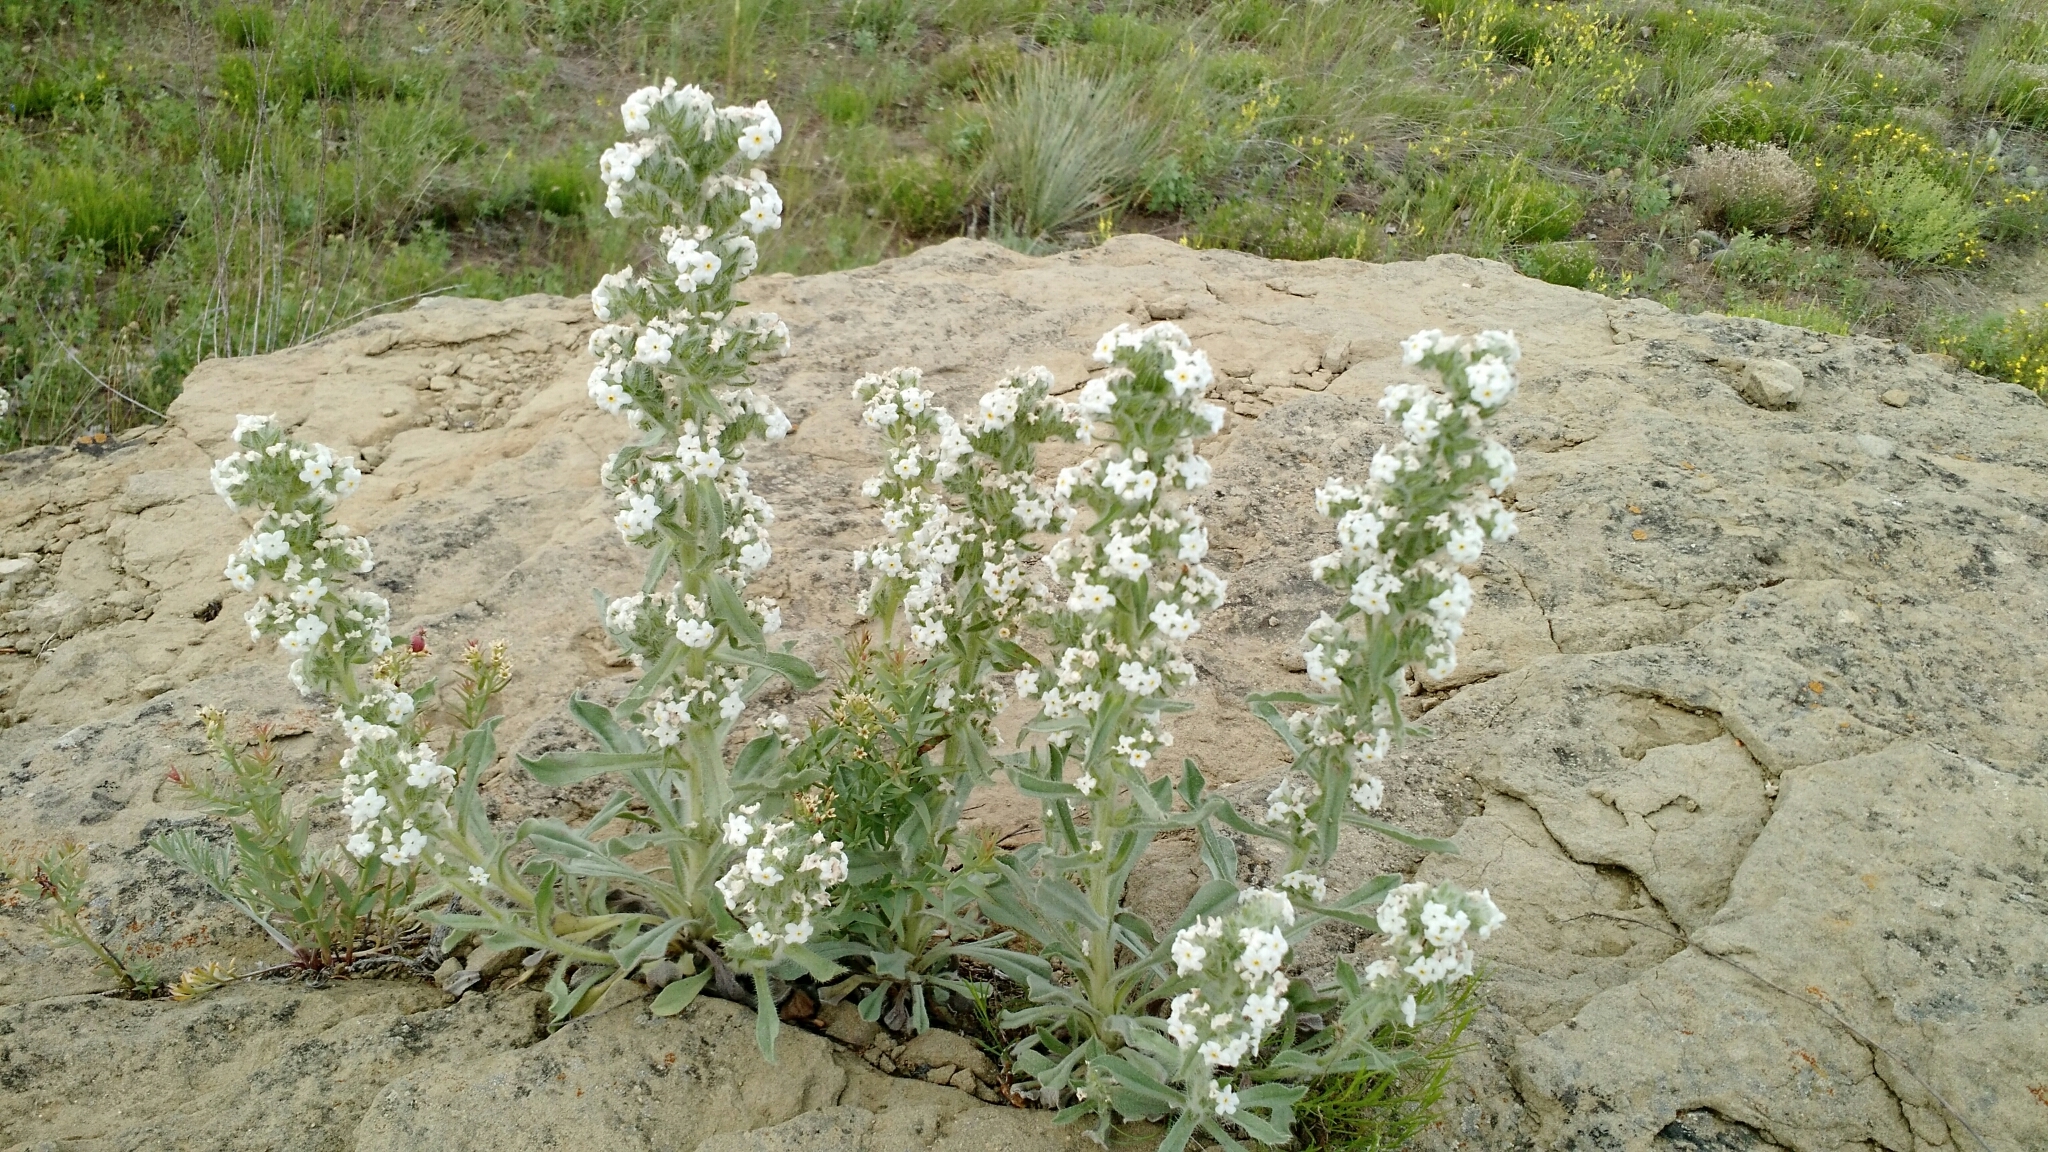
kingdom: Plantae
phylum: Tracheophyta
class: Magnoliopsida
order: Boraginales
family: Boraginaceae
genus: Oreocarya
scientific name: Oreocarya glomerata
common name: Macoun's cryptantha
